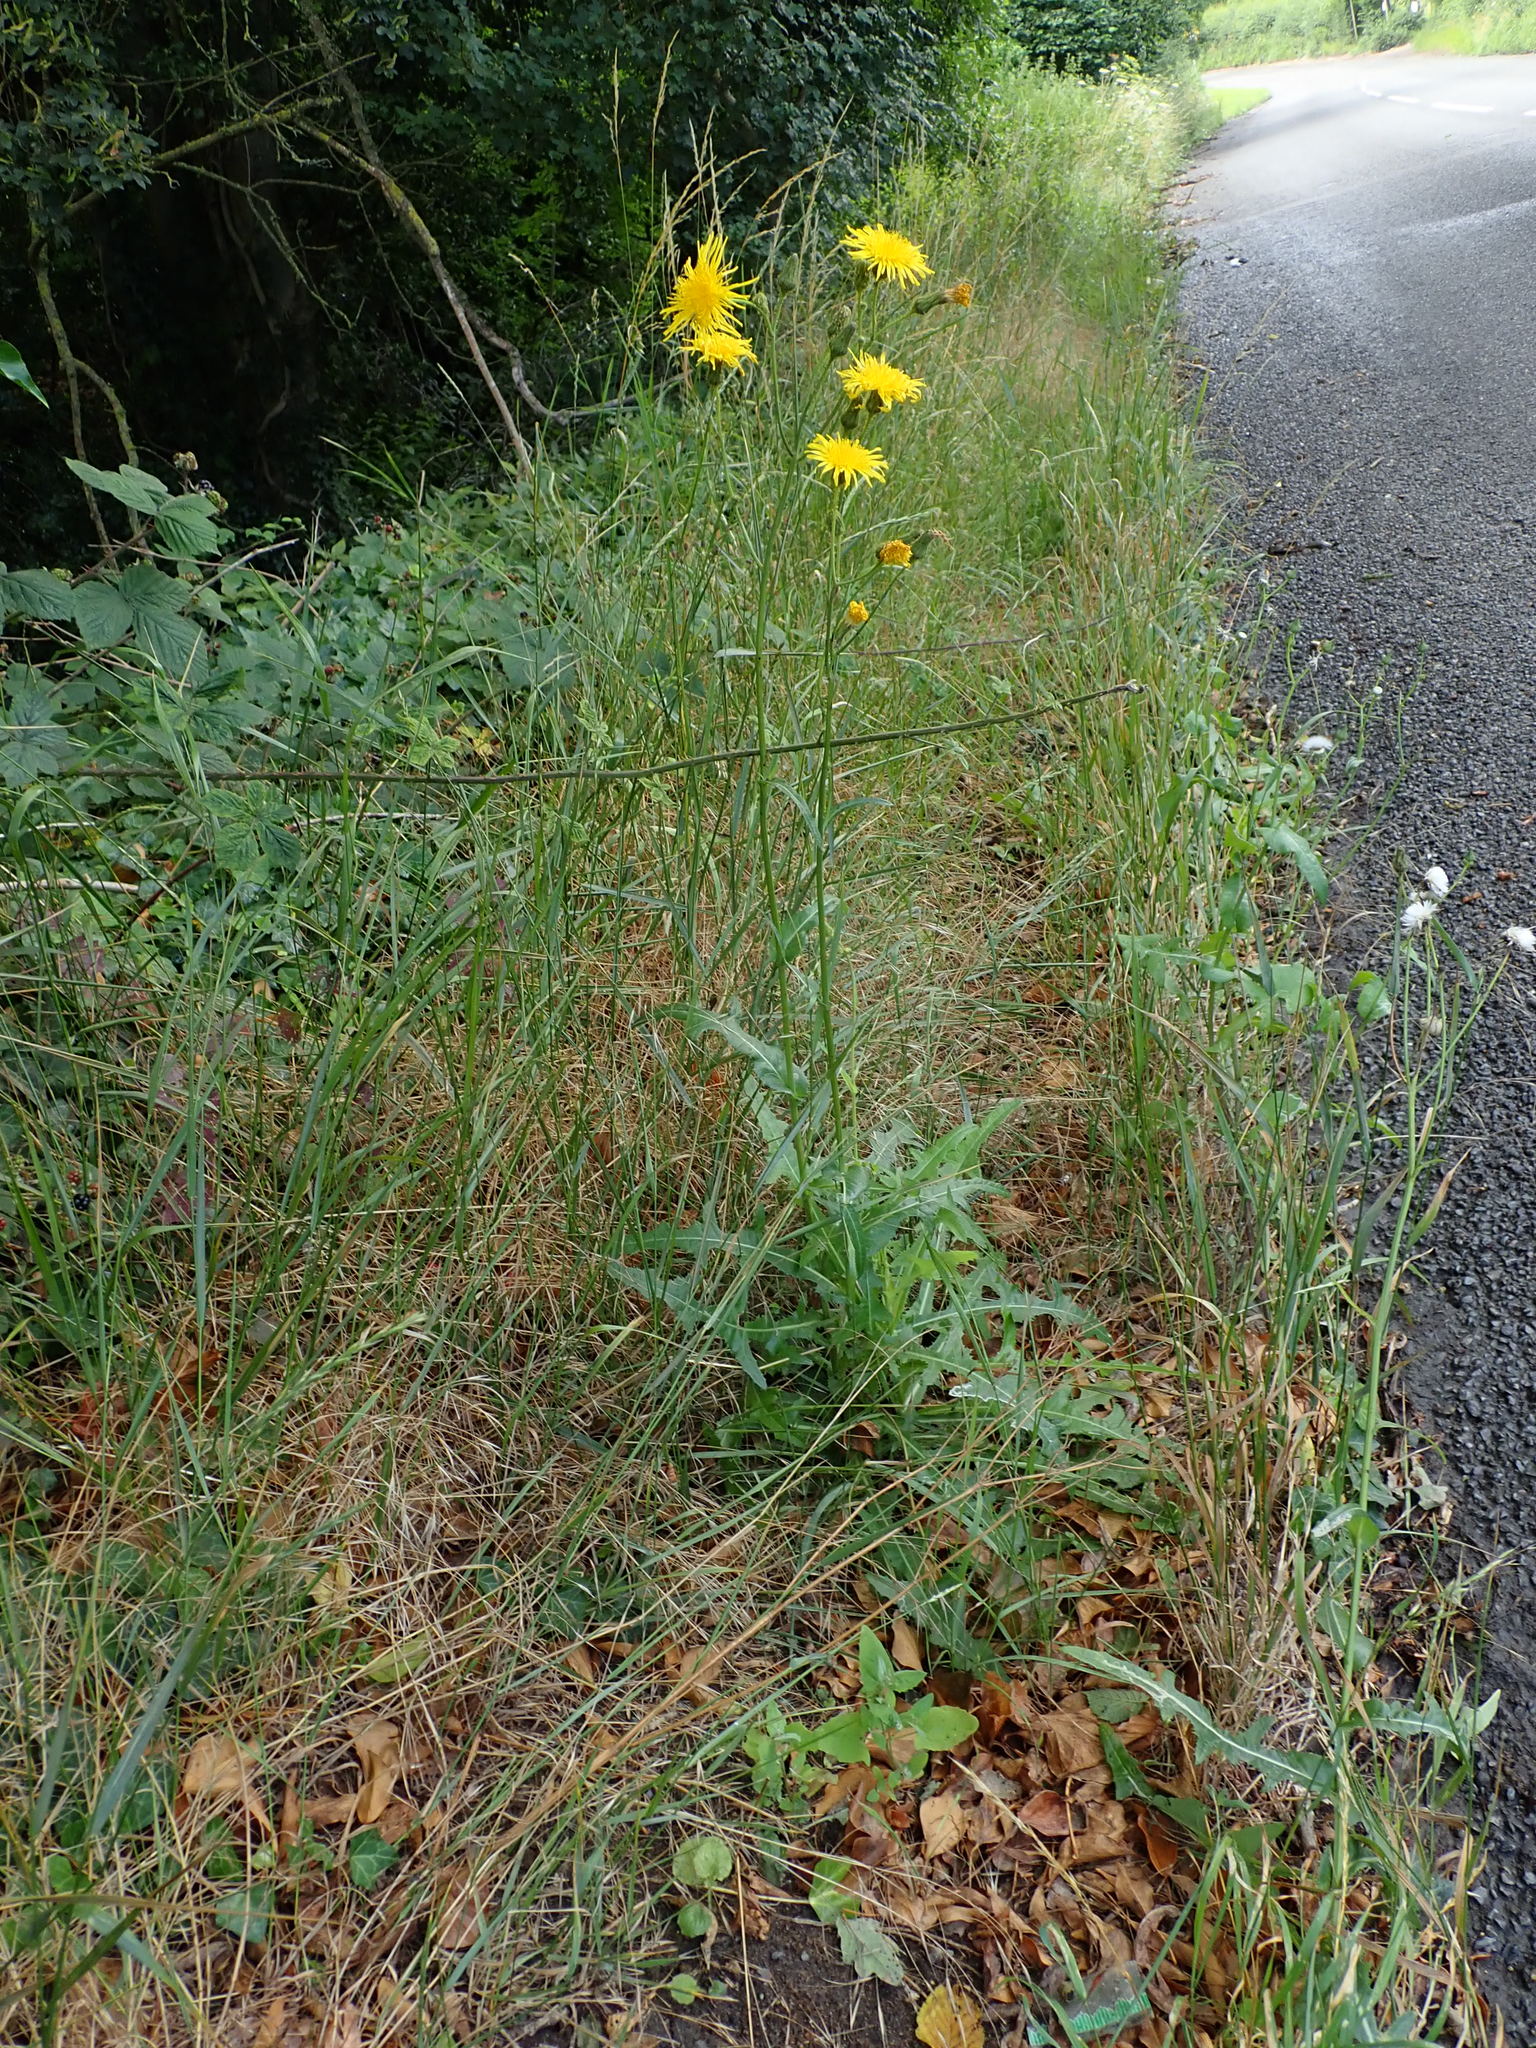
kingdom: Plantae
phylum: Tracheophyta
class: Magnoliopsida
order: Asterales
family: Asteraceae
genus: Sonchus
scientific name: Sonchus arvensis
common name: Perennial sow-thistle
